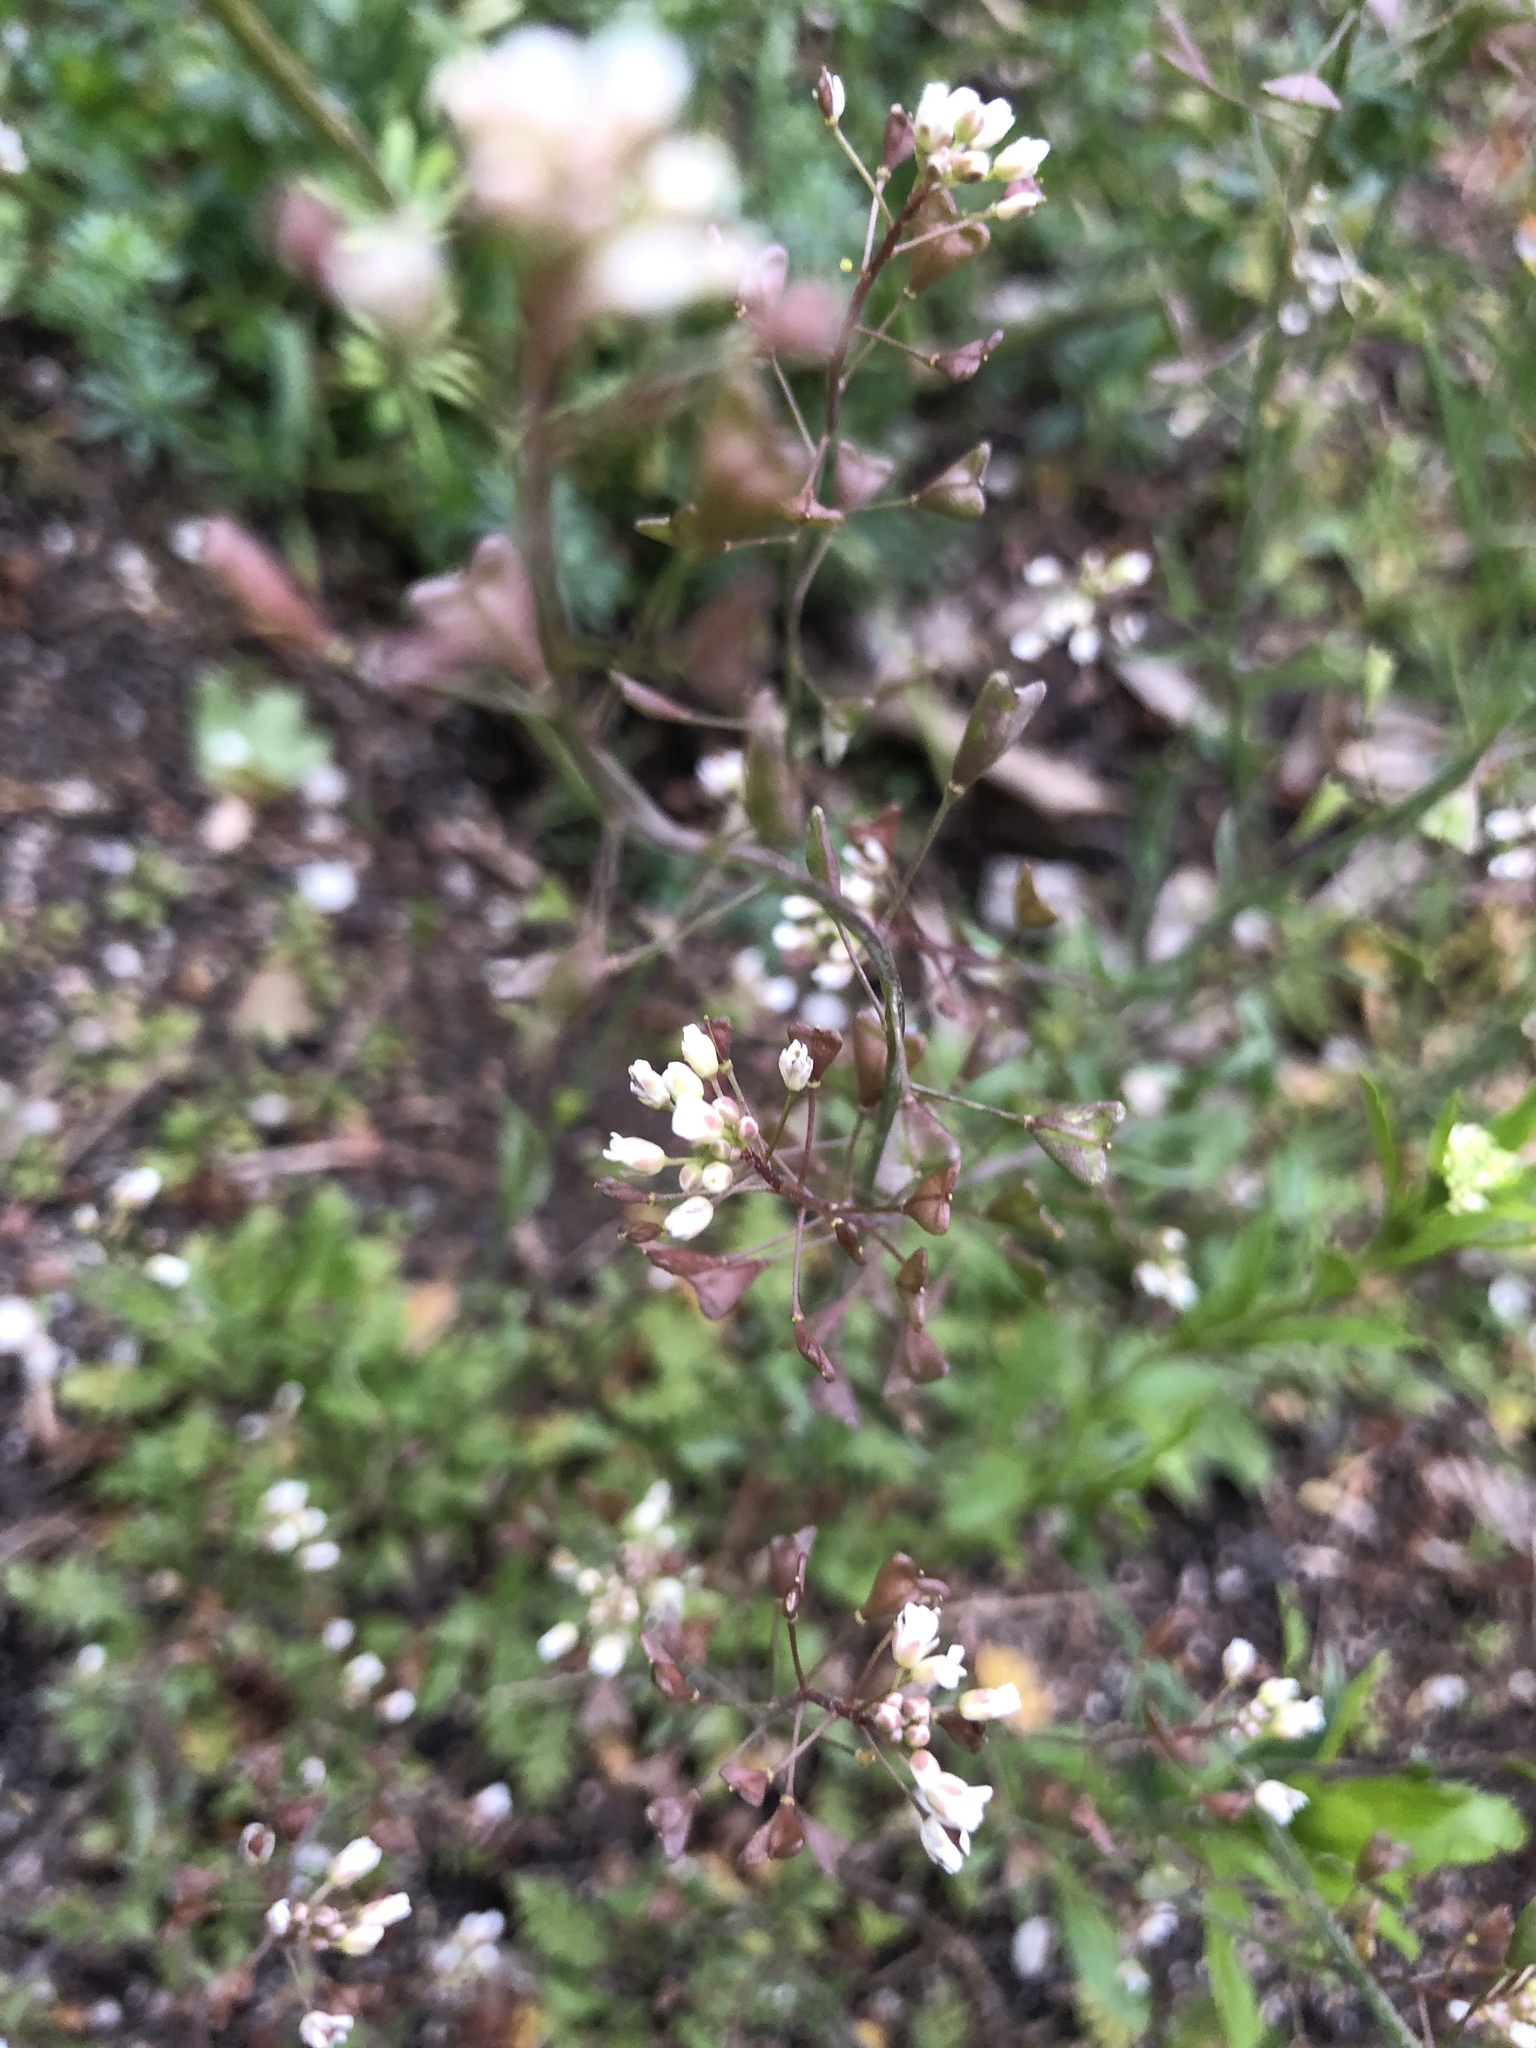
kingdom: Plantae
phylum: Tracheophyta
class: Magnoliopsida
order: Brassicales
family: Brassicaceae
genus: Capsella
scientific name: Capsella bursa-pastoris
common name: Shepherd's purse
